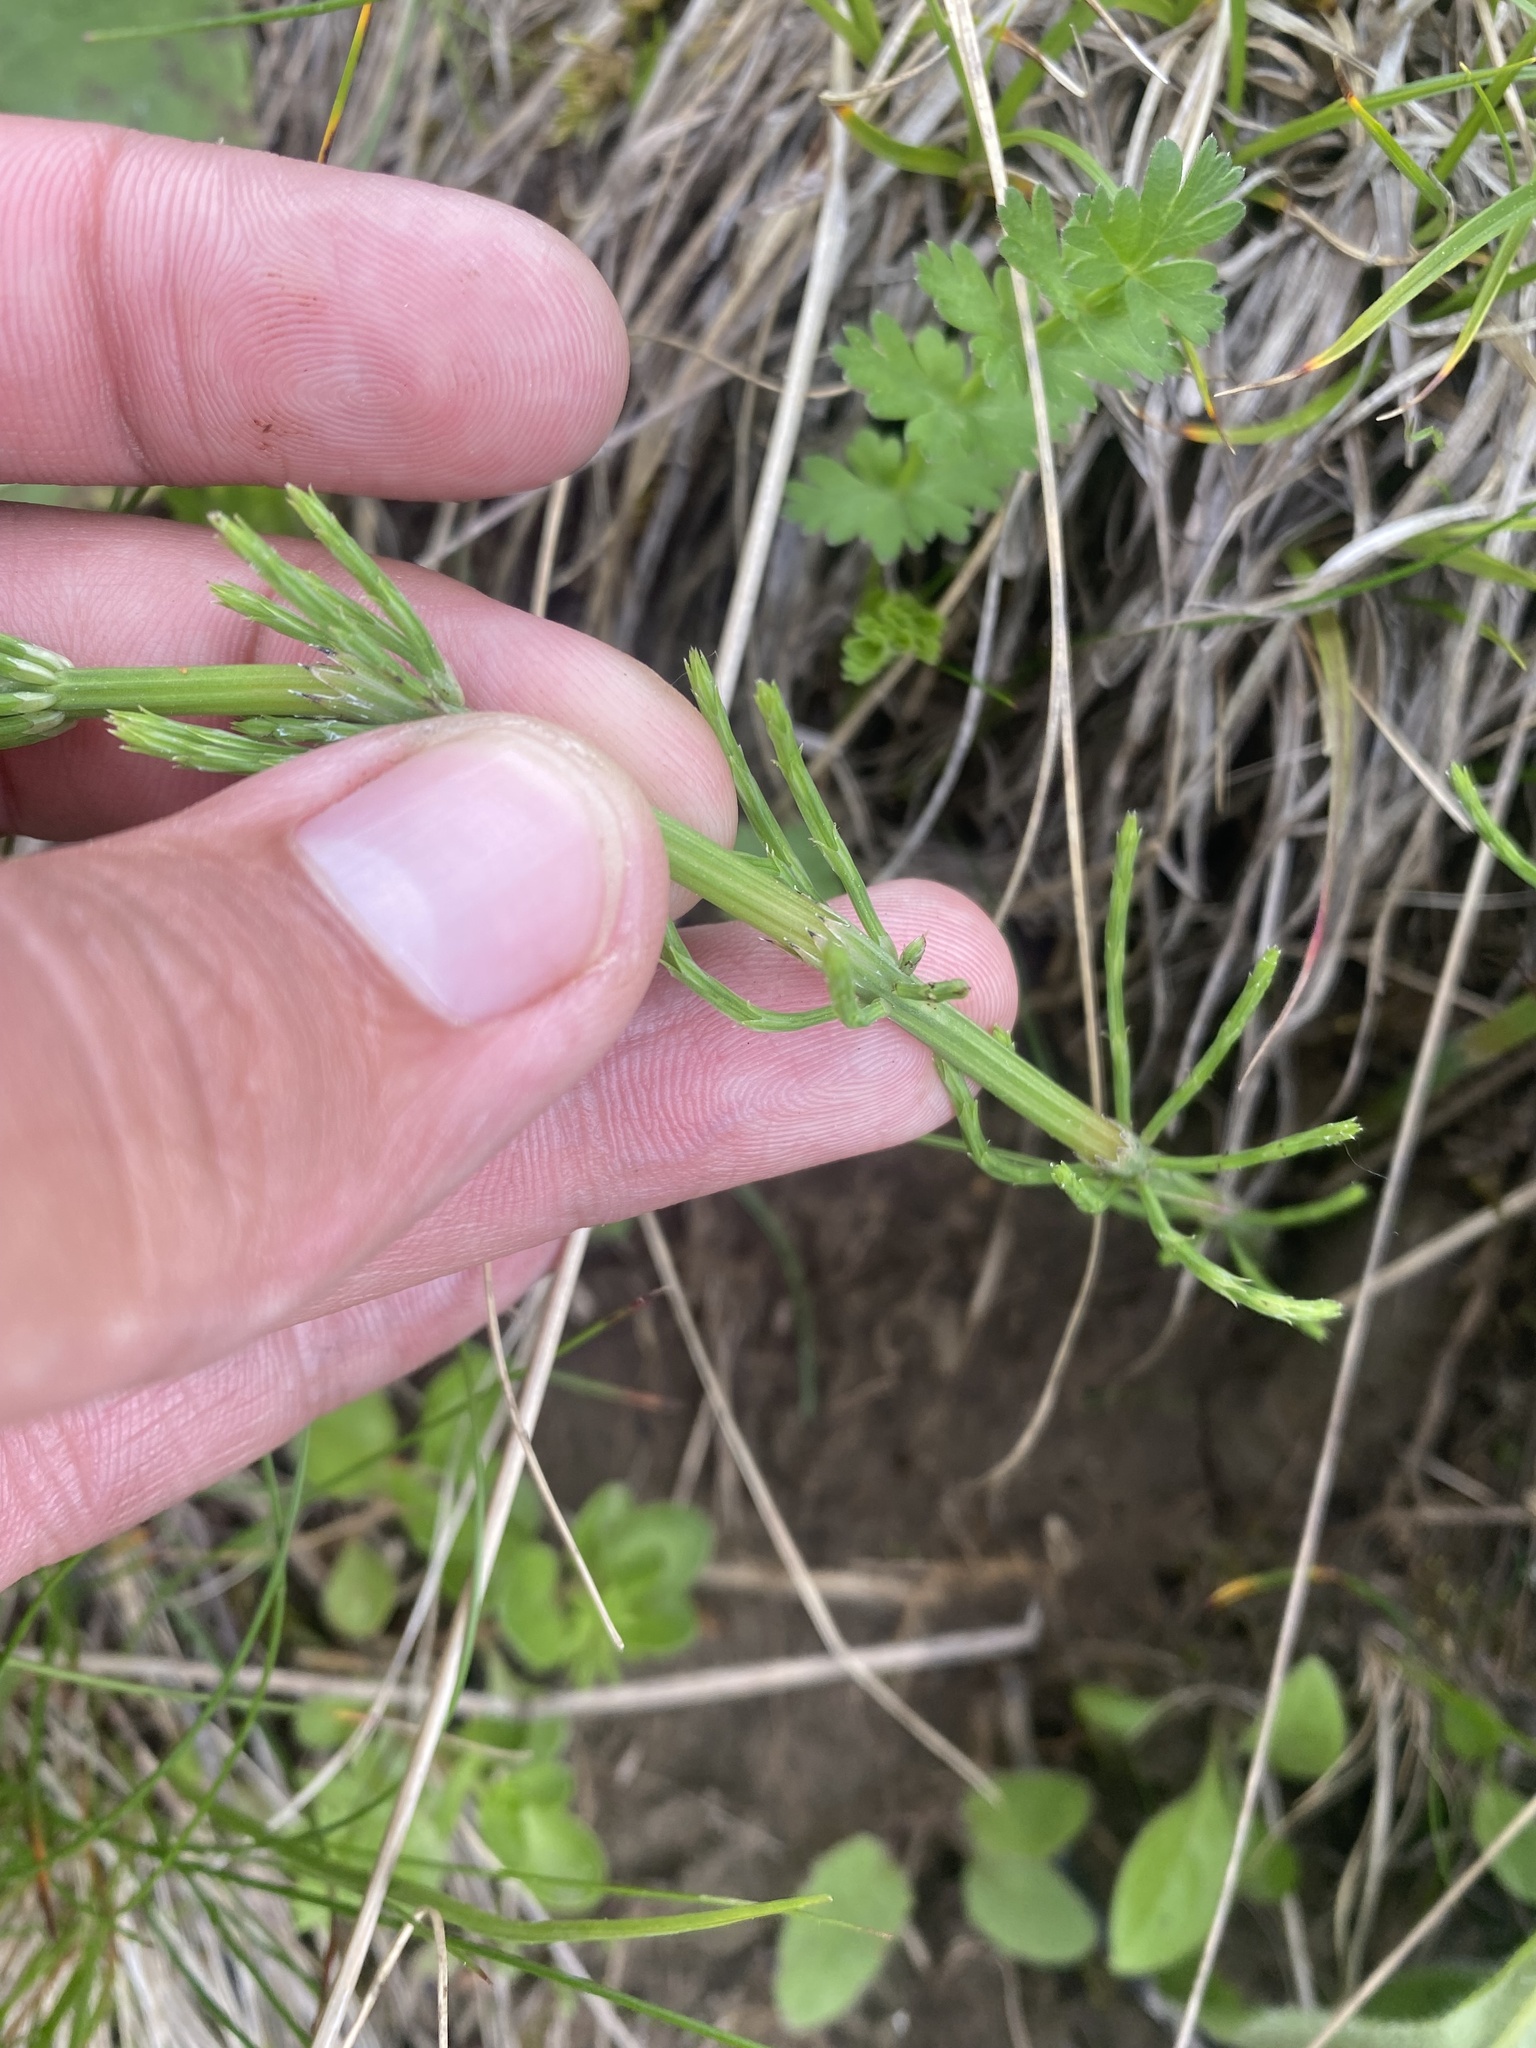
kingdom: Plantae
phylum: Tracheophyta
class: Polypodiopsida
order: Equisetales
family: Equisetaceae
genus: Equisetum
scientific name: Equisetum arvense
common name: Field horsetail
